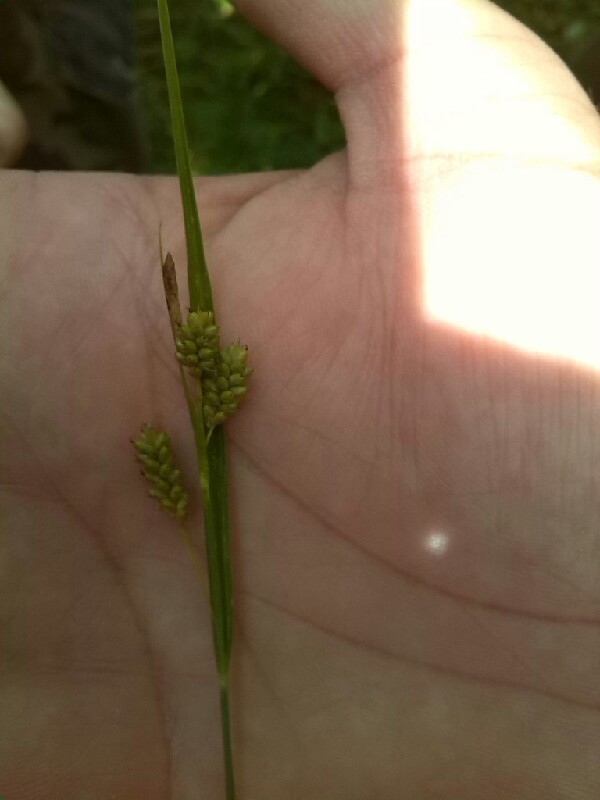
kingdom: Plantae
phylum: Tracheophyta
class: Liliopsida
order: Poales
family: Cyperaceae
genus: Carex
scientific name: Carex pallescens
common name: Pale sedge
